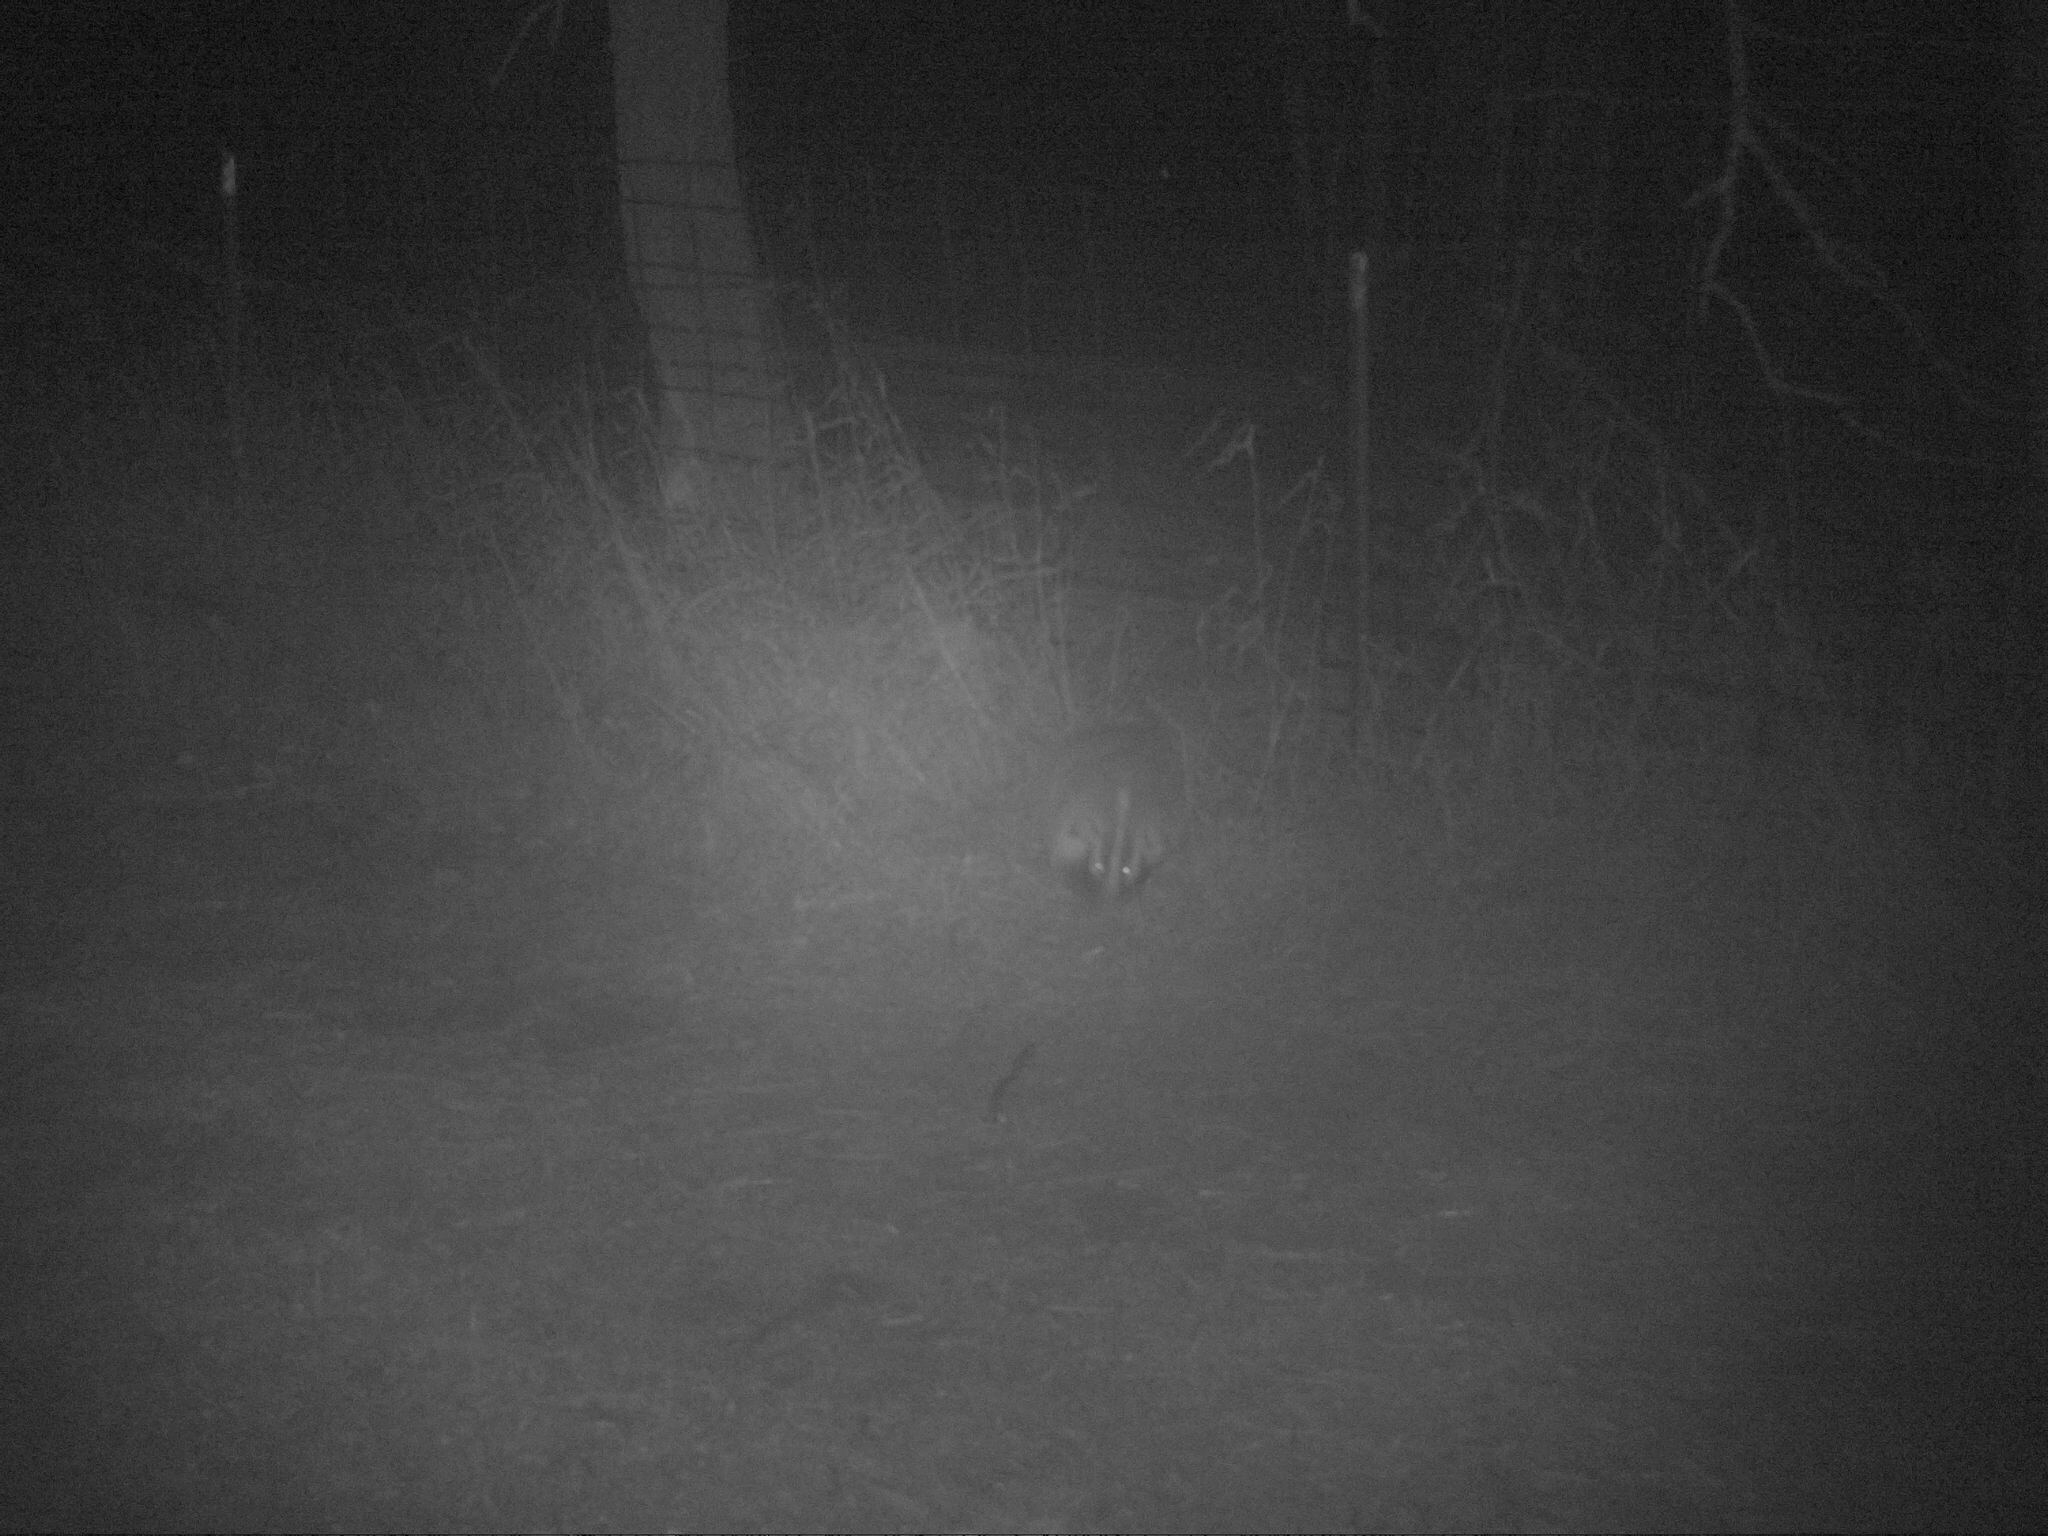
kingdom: Animalia
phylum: Chordata
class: Mammalia
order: Carnivora
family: Mustelidae
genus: Taxidea
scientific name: Taxidea taxus
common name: American badger
